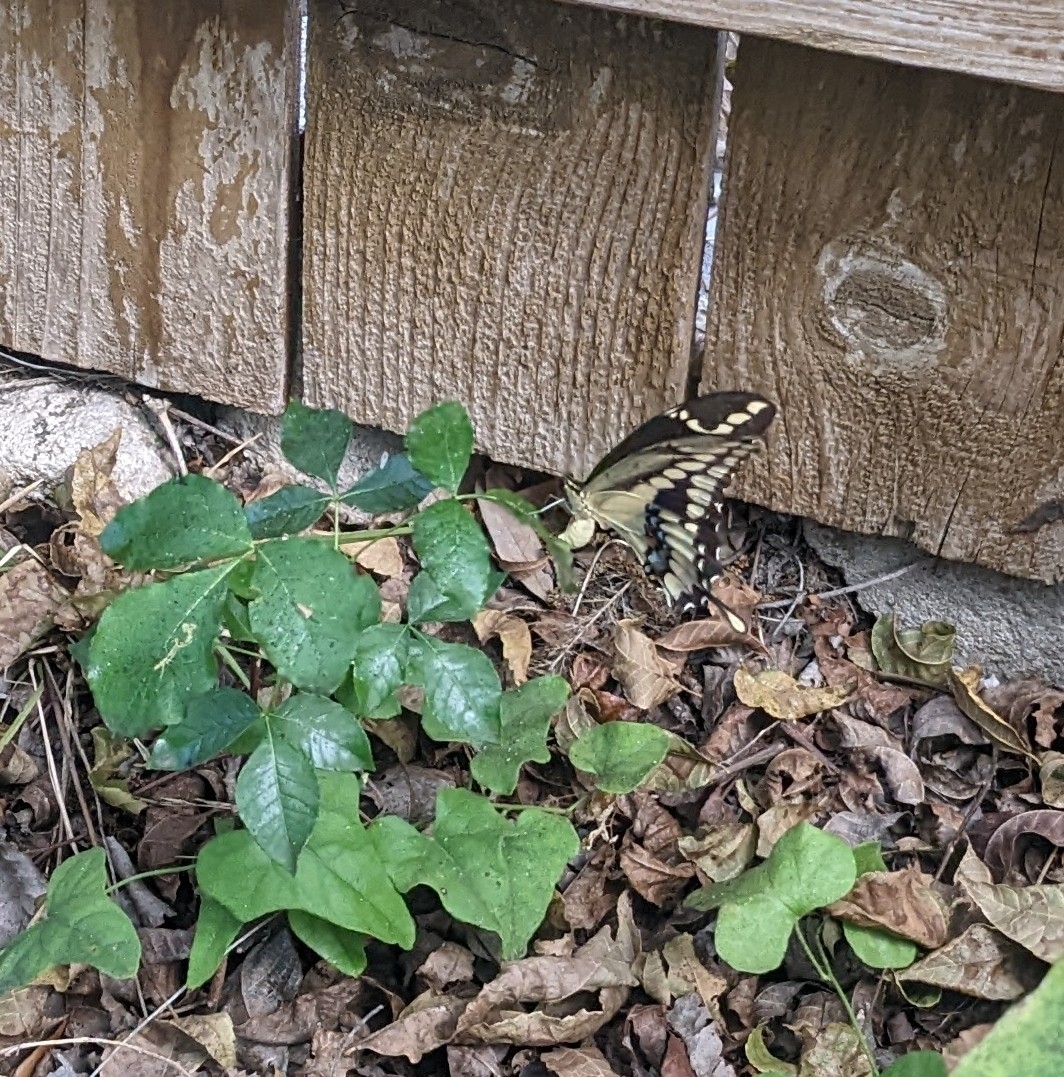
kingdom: Animalia
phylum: Arthropoda
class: Insecta
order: Lepidoptera
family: Papilionidae
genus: Papilio
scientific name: Papilio rumiko
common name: Western giant swallowtail
